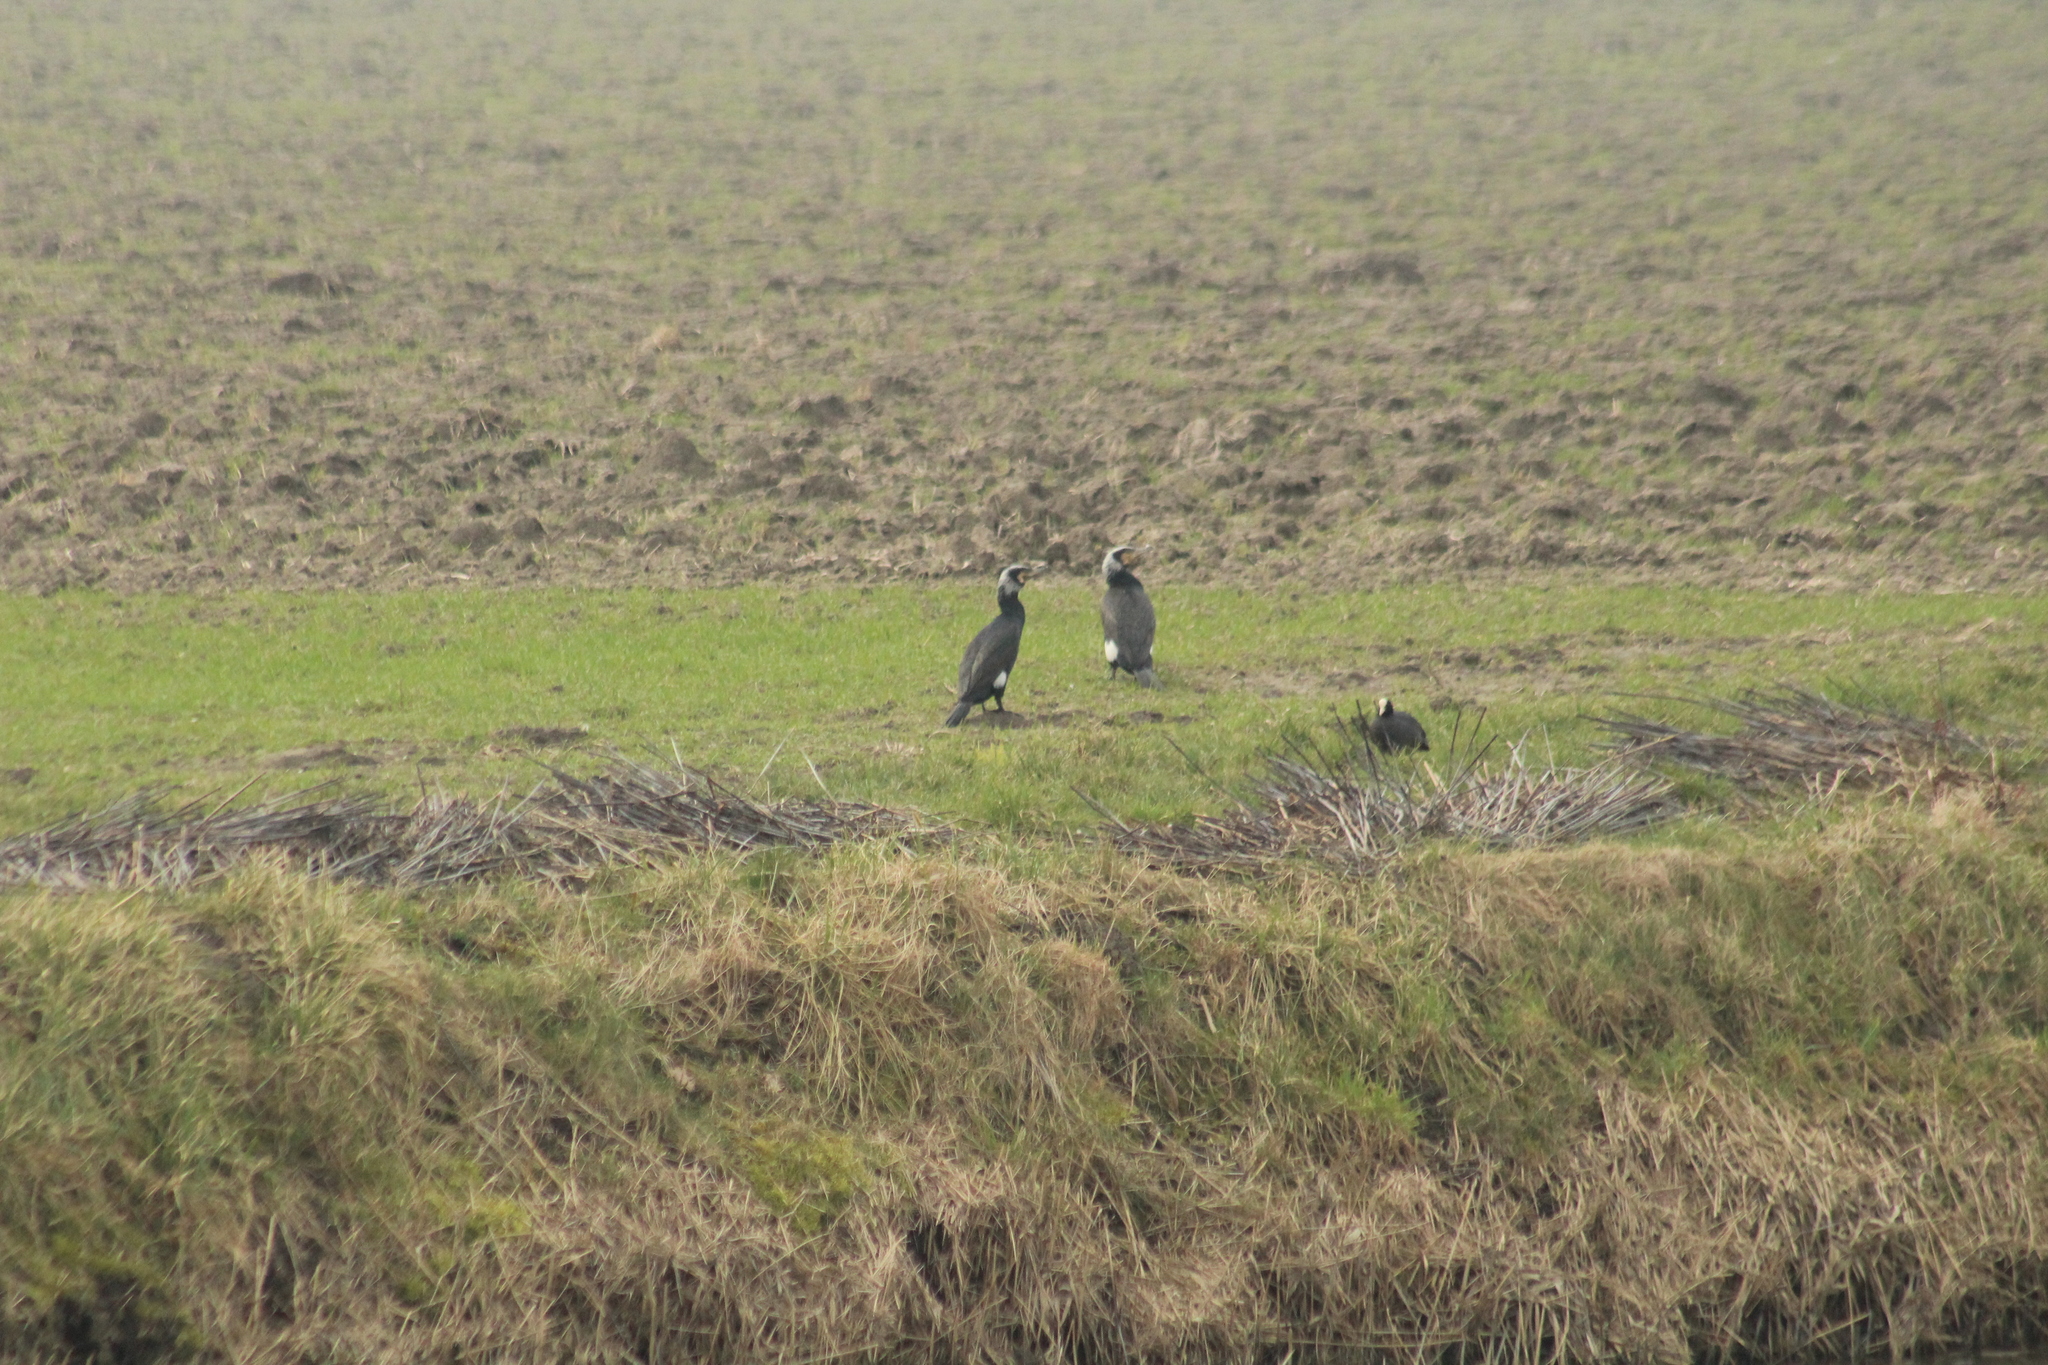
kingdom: Animalia
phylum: Chordata
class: Aves
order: Suliformes
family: Phalacrocoracidae
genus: Phalacrocorax
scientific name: Phalacrocorax carbo
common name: Great cormorant
